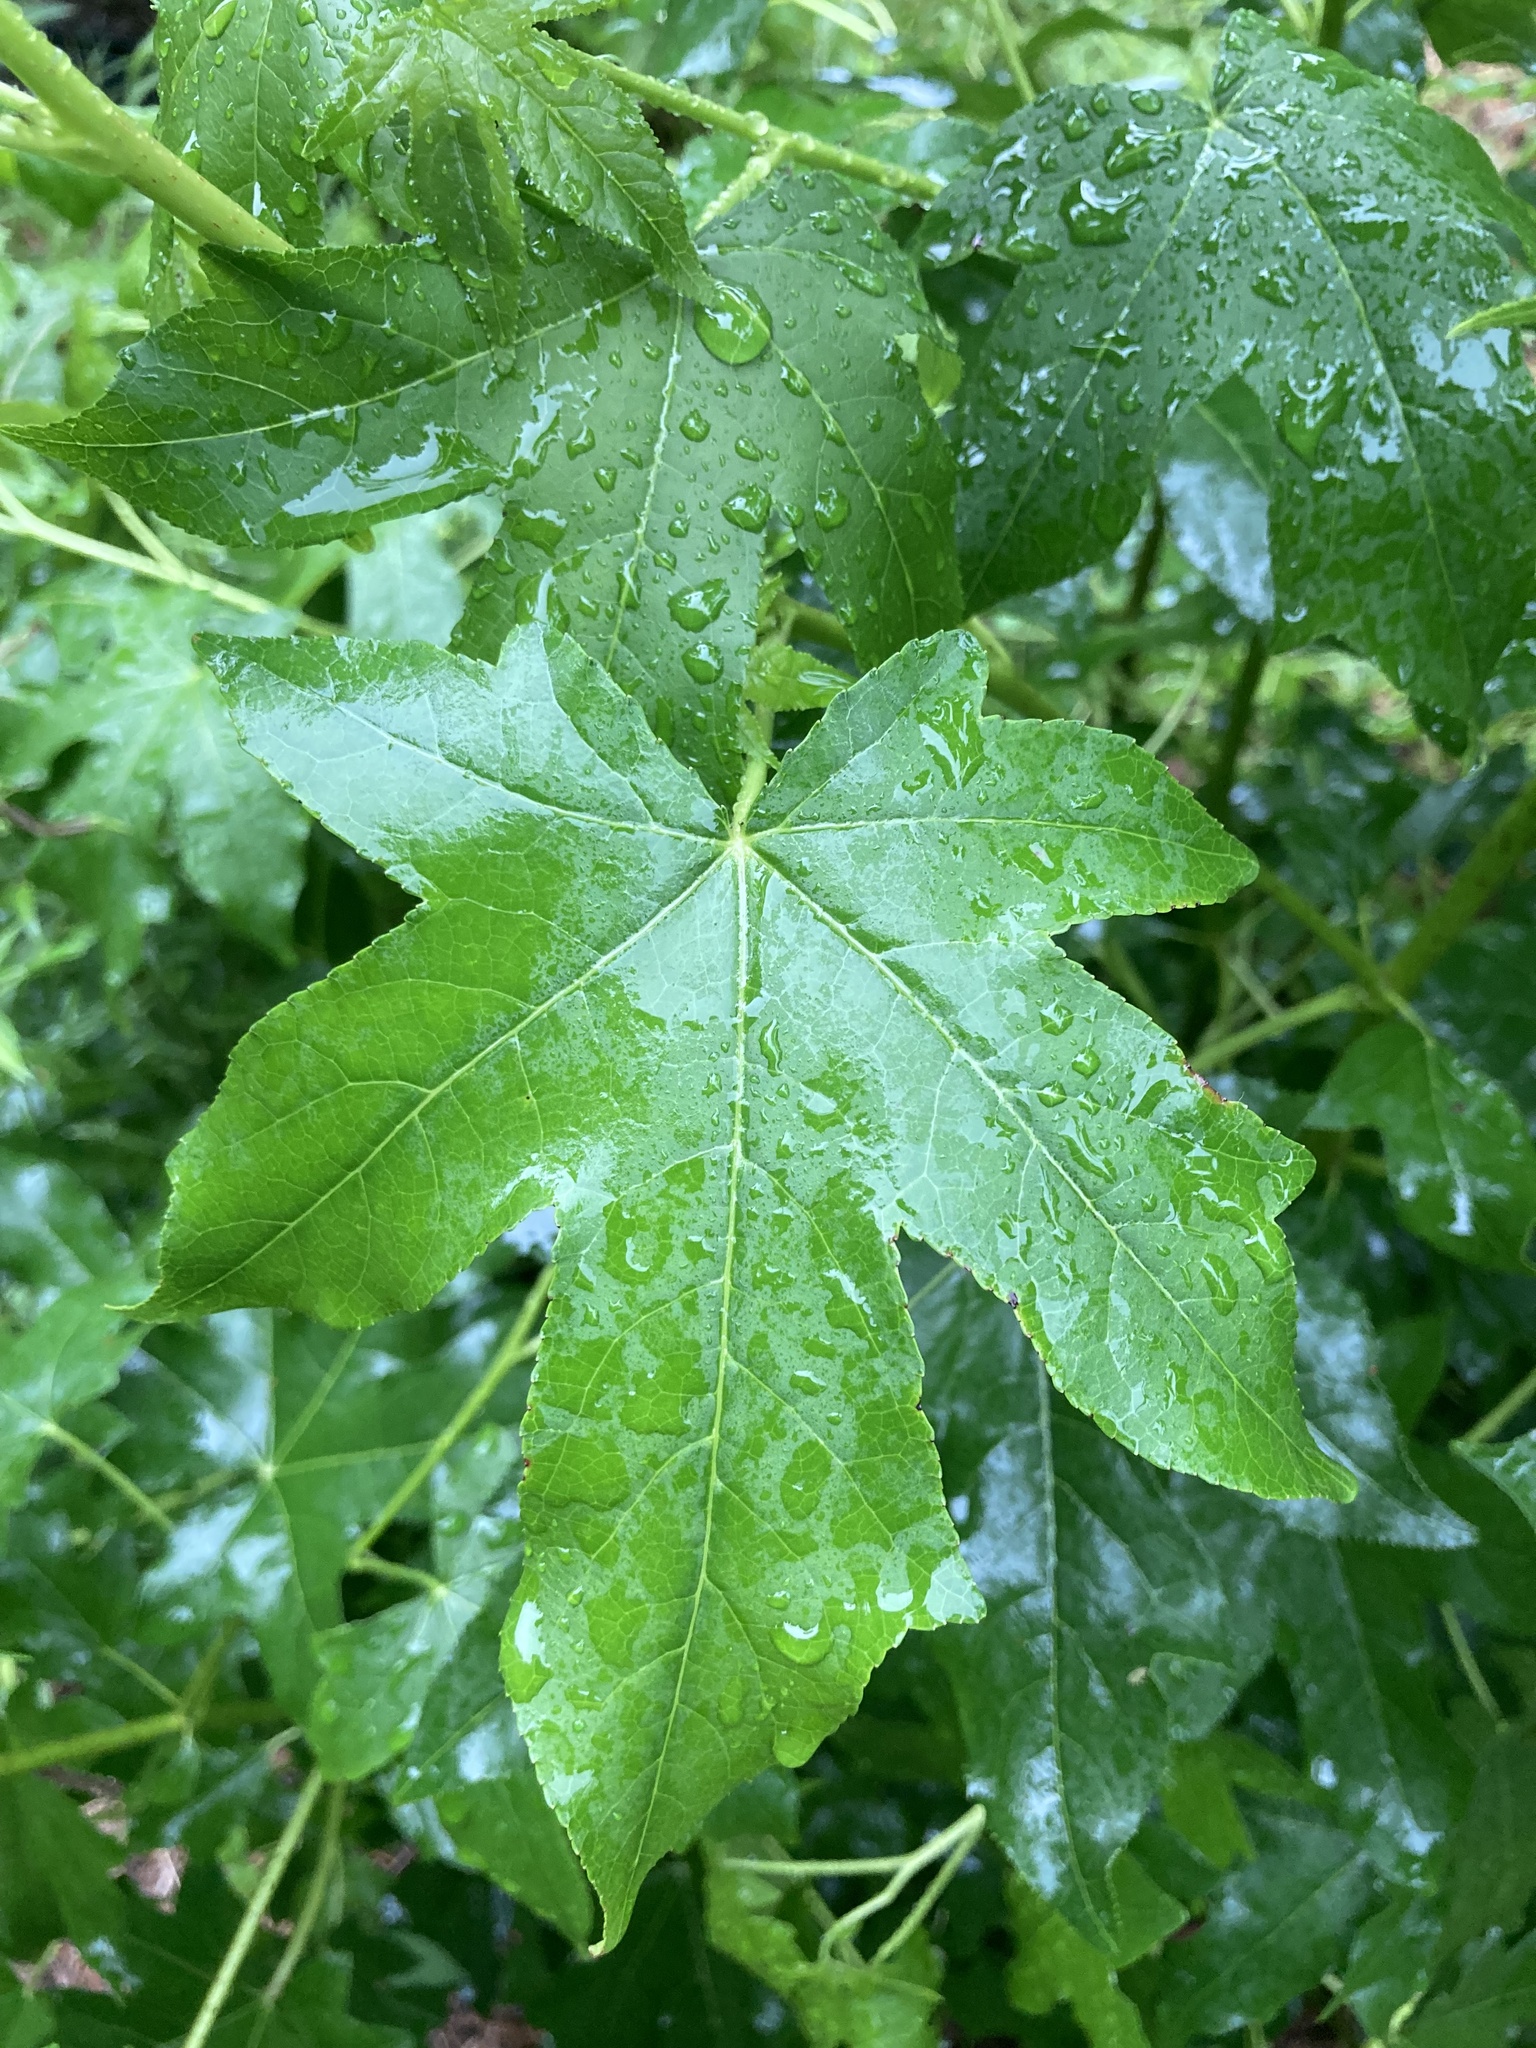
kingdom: Plantae
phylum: Tracheophyta
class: Magnoliopsida
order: Saxifragales
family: Altingiaceae
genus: Liquidambar
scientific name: Liquidambar styraciflua
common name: Sweet gum
